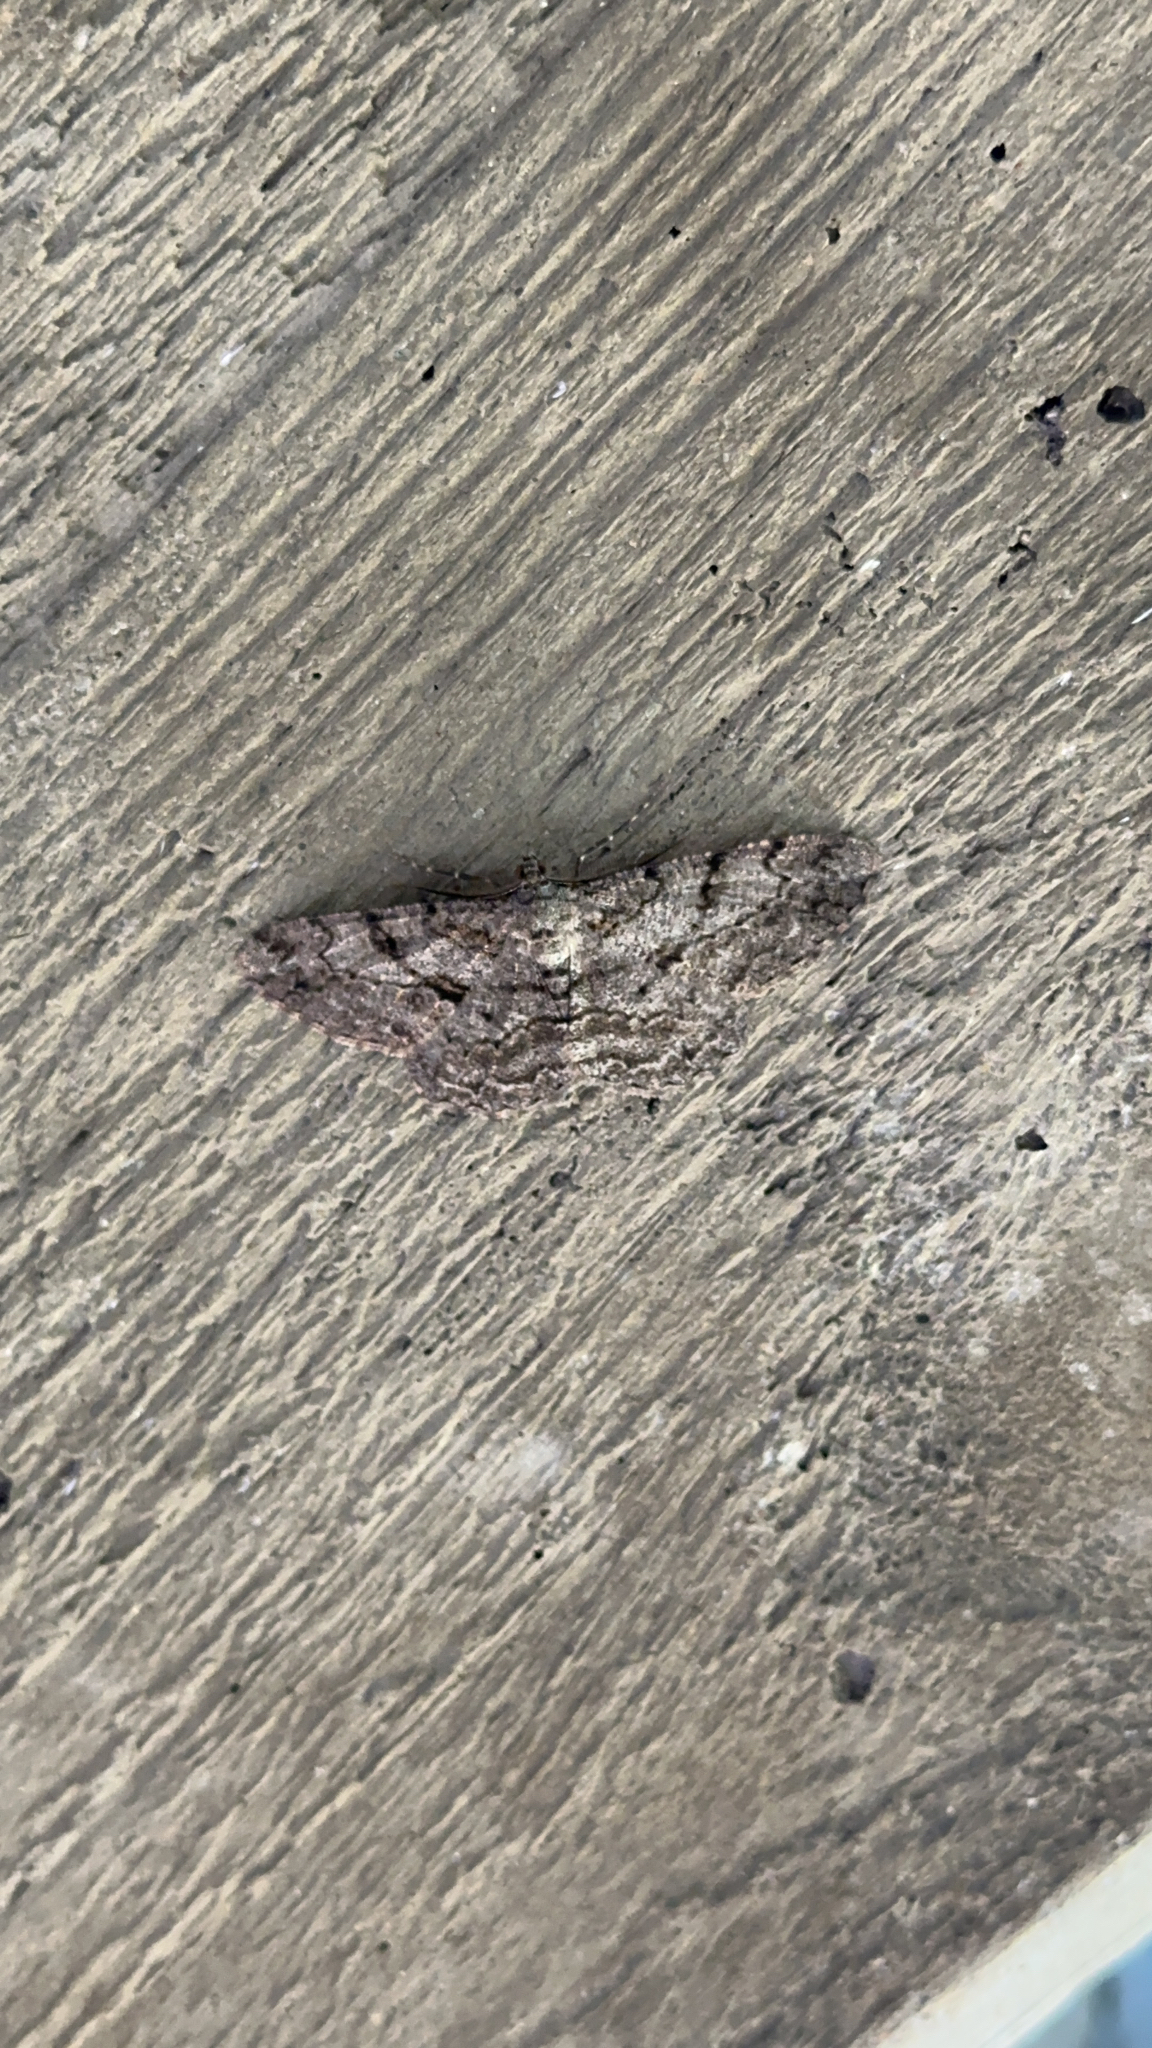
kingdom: Animalia
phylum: Arthropoda
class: Insecta
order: Lepidoptera
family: Geometridae
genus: Peribatodes
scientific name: Peribatodes rhomboidaria
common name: Willow beauty
